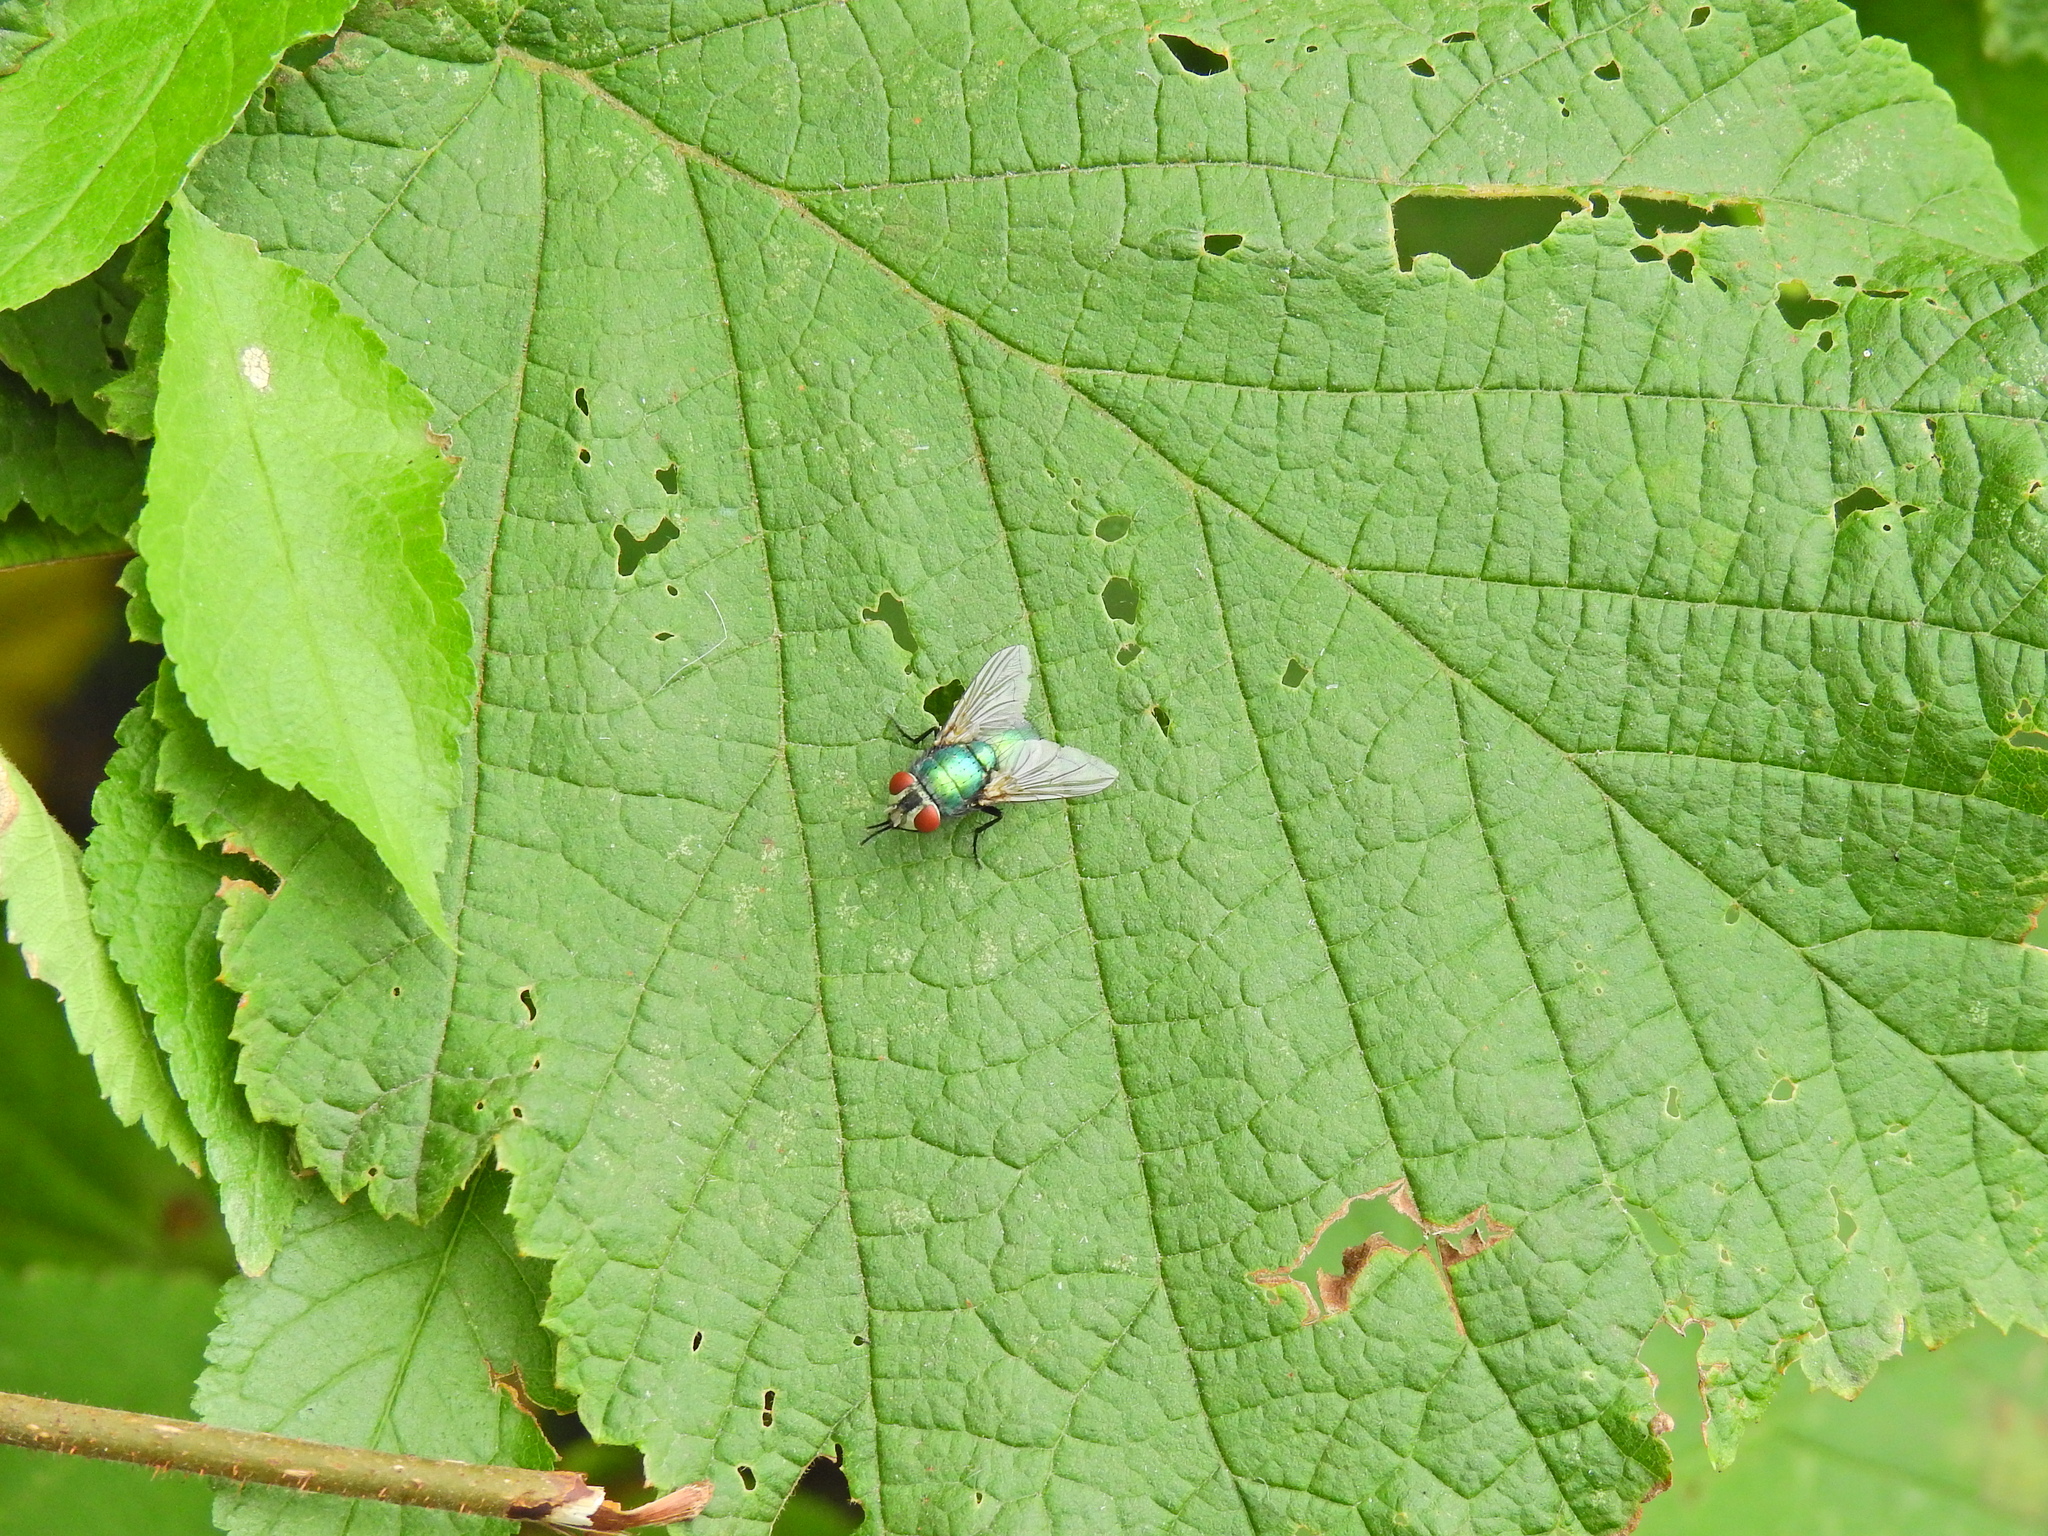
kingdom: Animalia
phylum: Arthropoda
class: Insecta
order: Diptera
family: Calliphoridae
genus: Lucilia
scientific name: Lucilia sericata
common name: Blow fly
